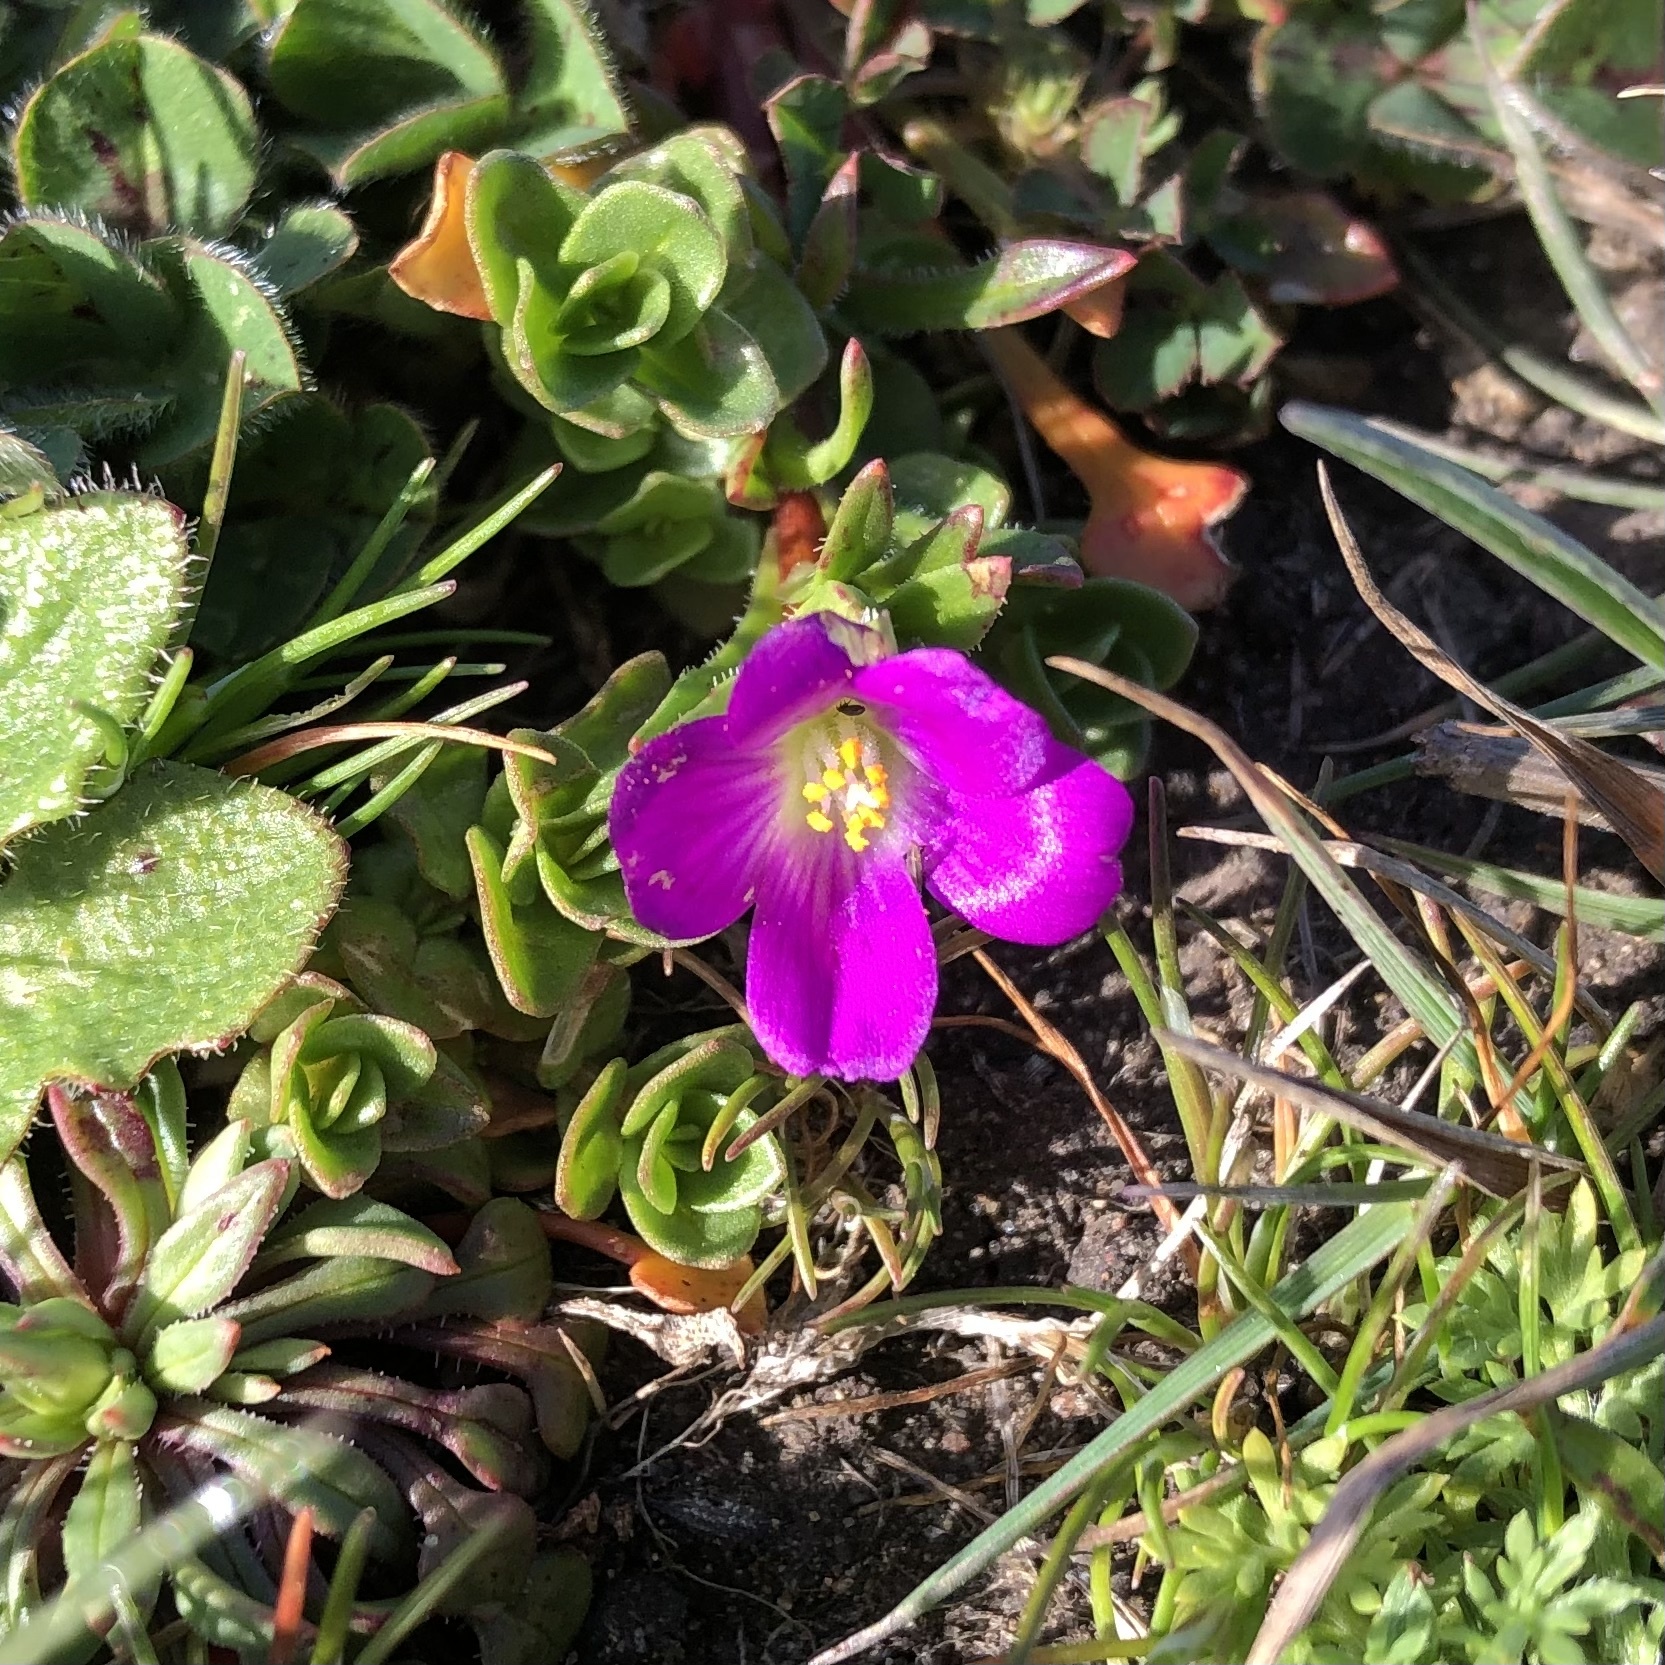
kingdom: Plantae
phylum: Tracheophyta
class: Magnoliopsida
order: Caryophyllales
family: Montiaceae
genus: Calandrinia
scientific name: Calandrinia menziesii
